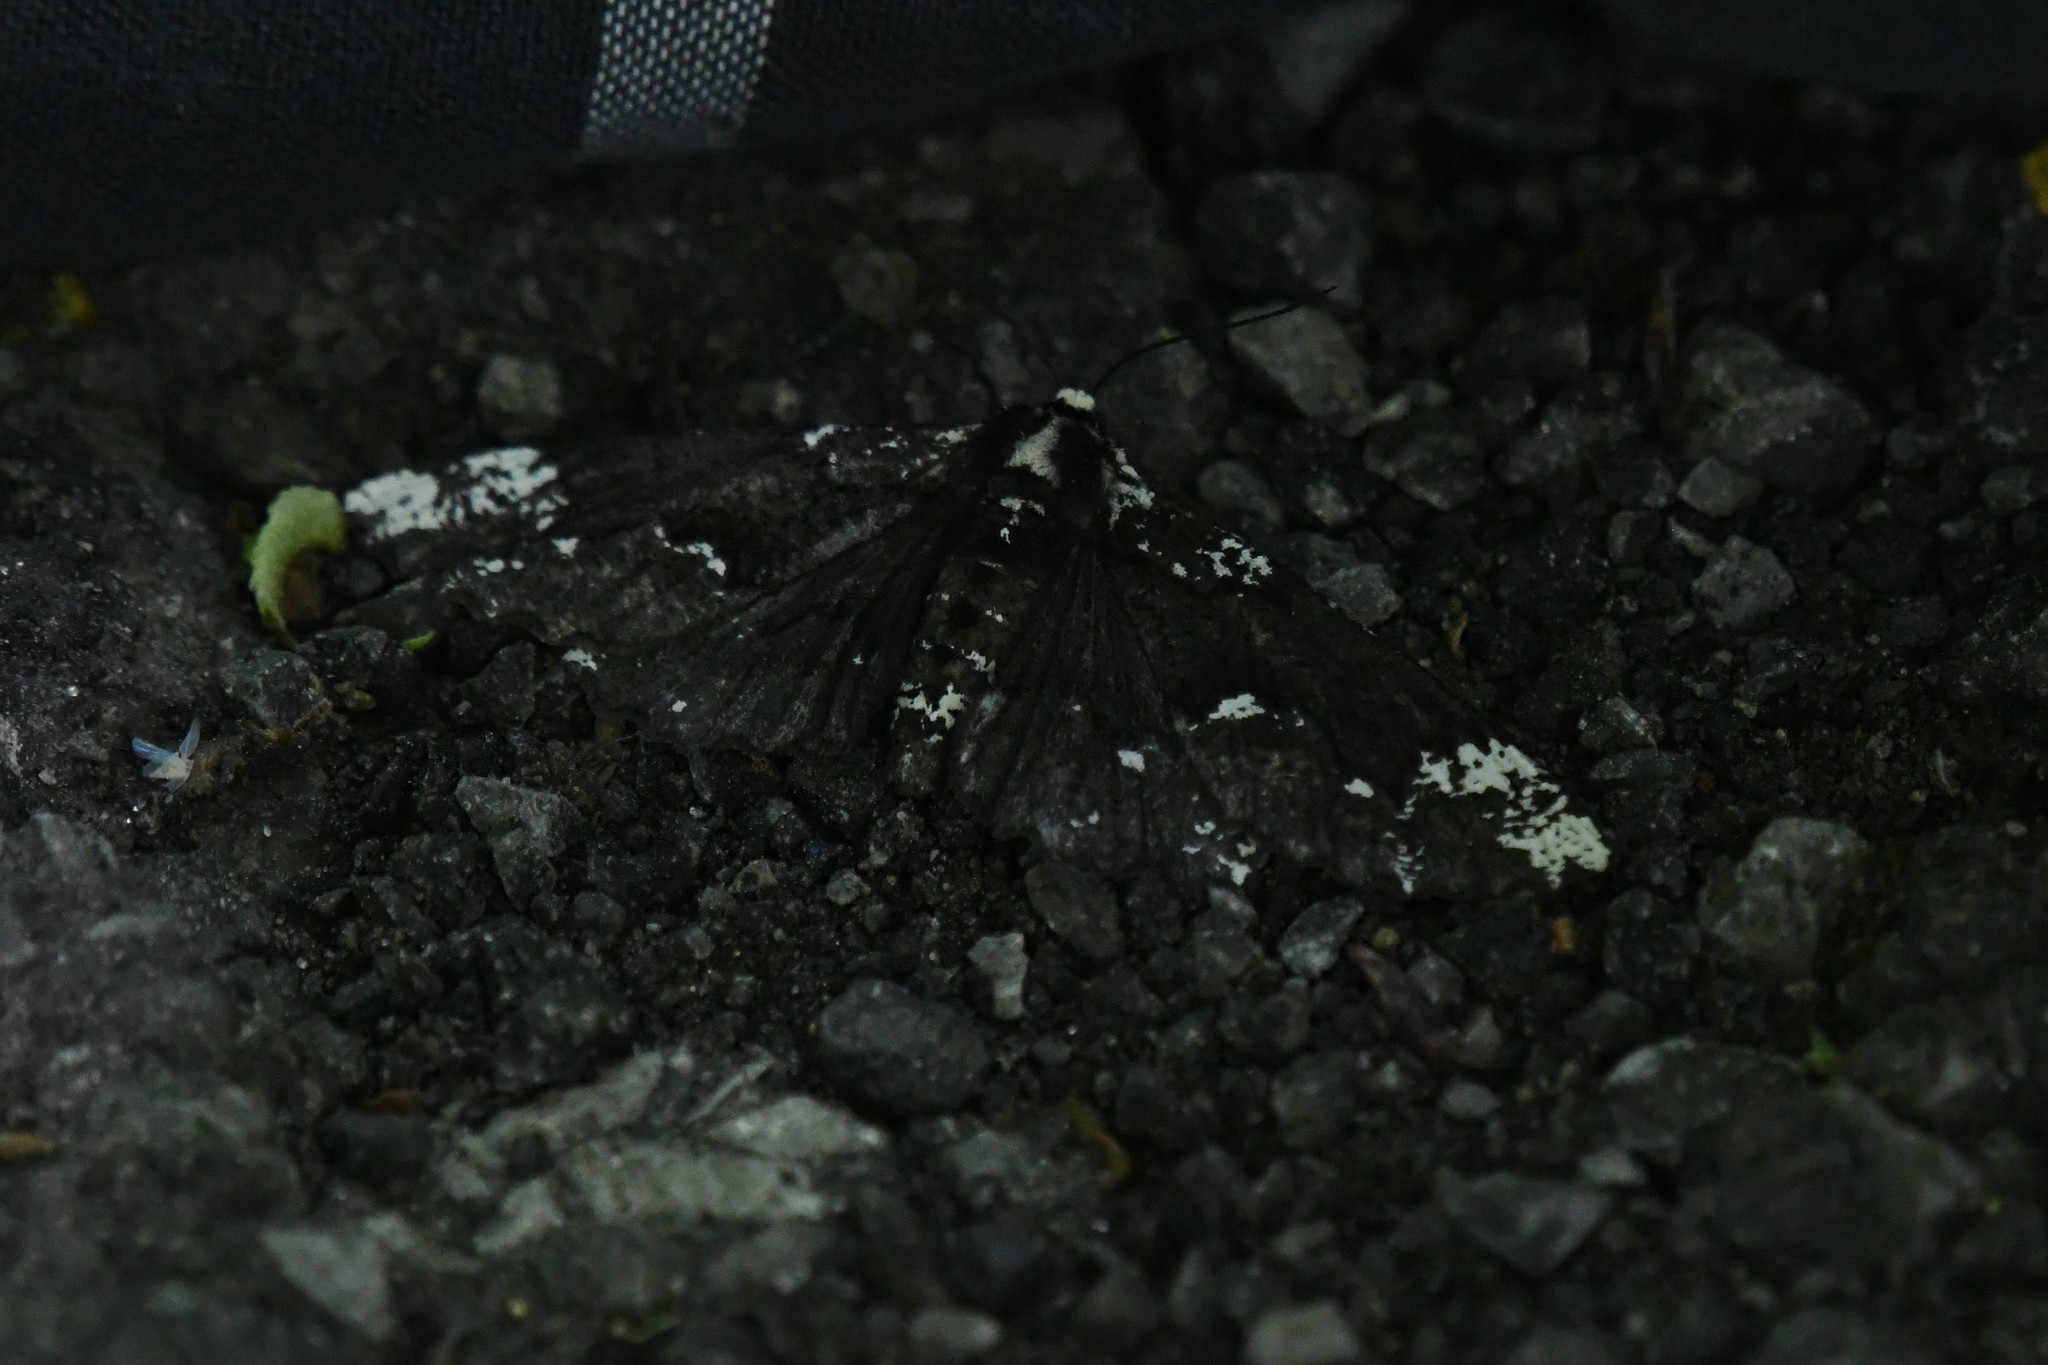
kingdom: Animalia
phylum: Arthropoda
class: Insecta
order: Lepidoptera
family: Geometridae
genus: Phaeoura
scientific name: Phaeoura quernaria
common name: Oak beauty
